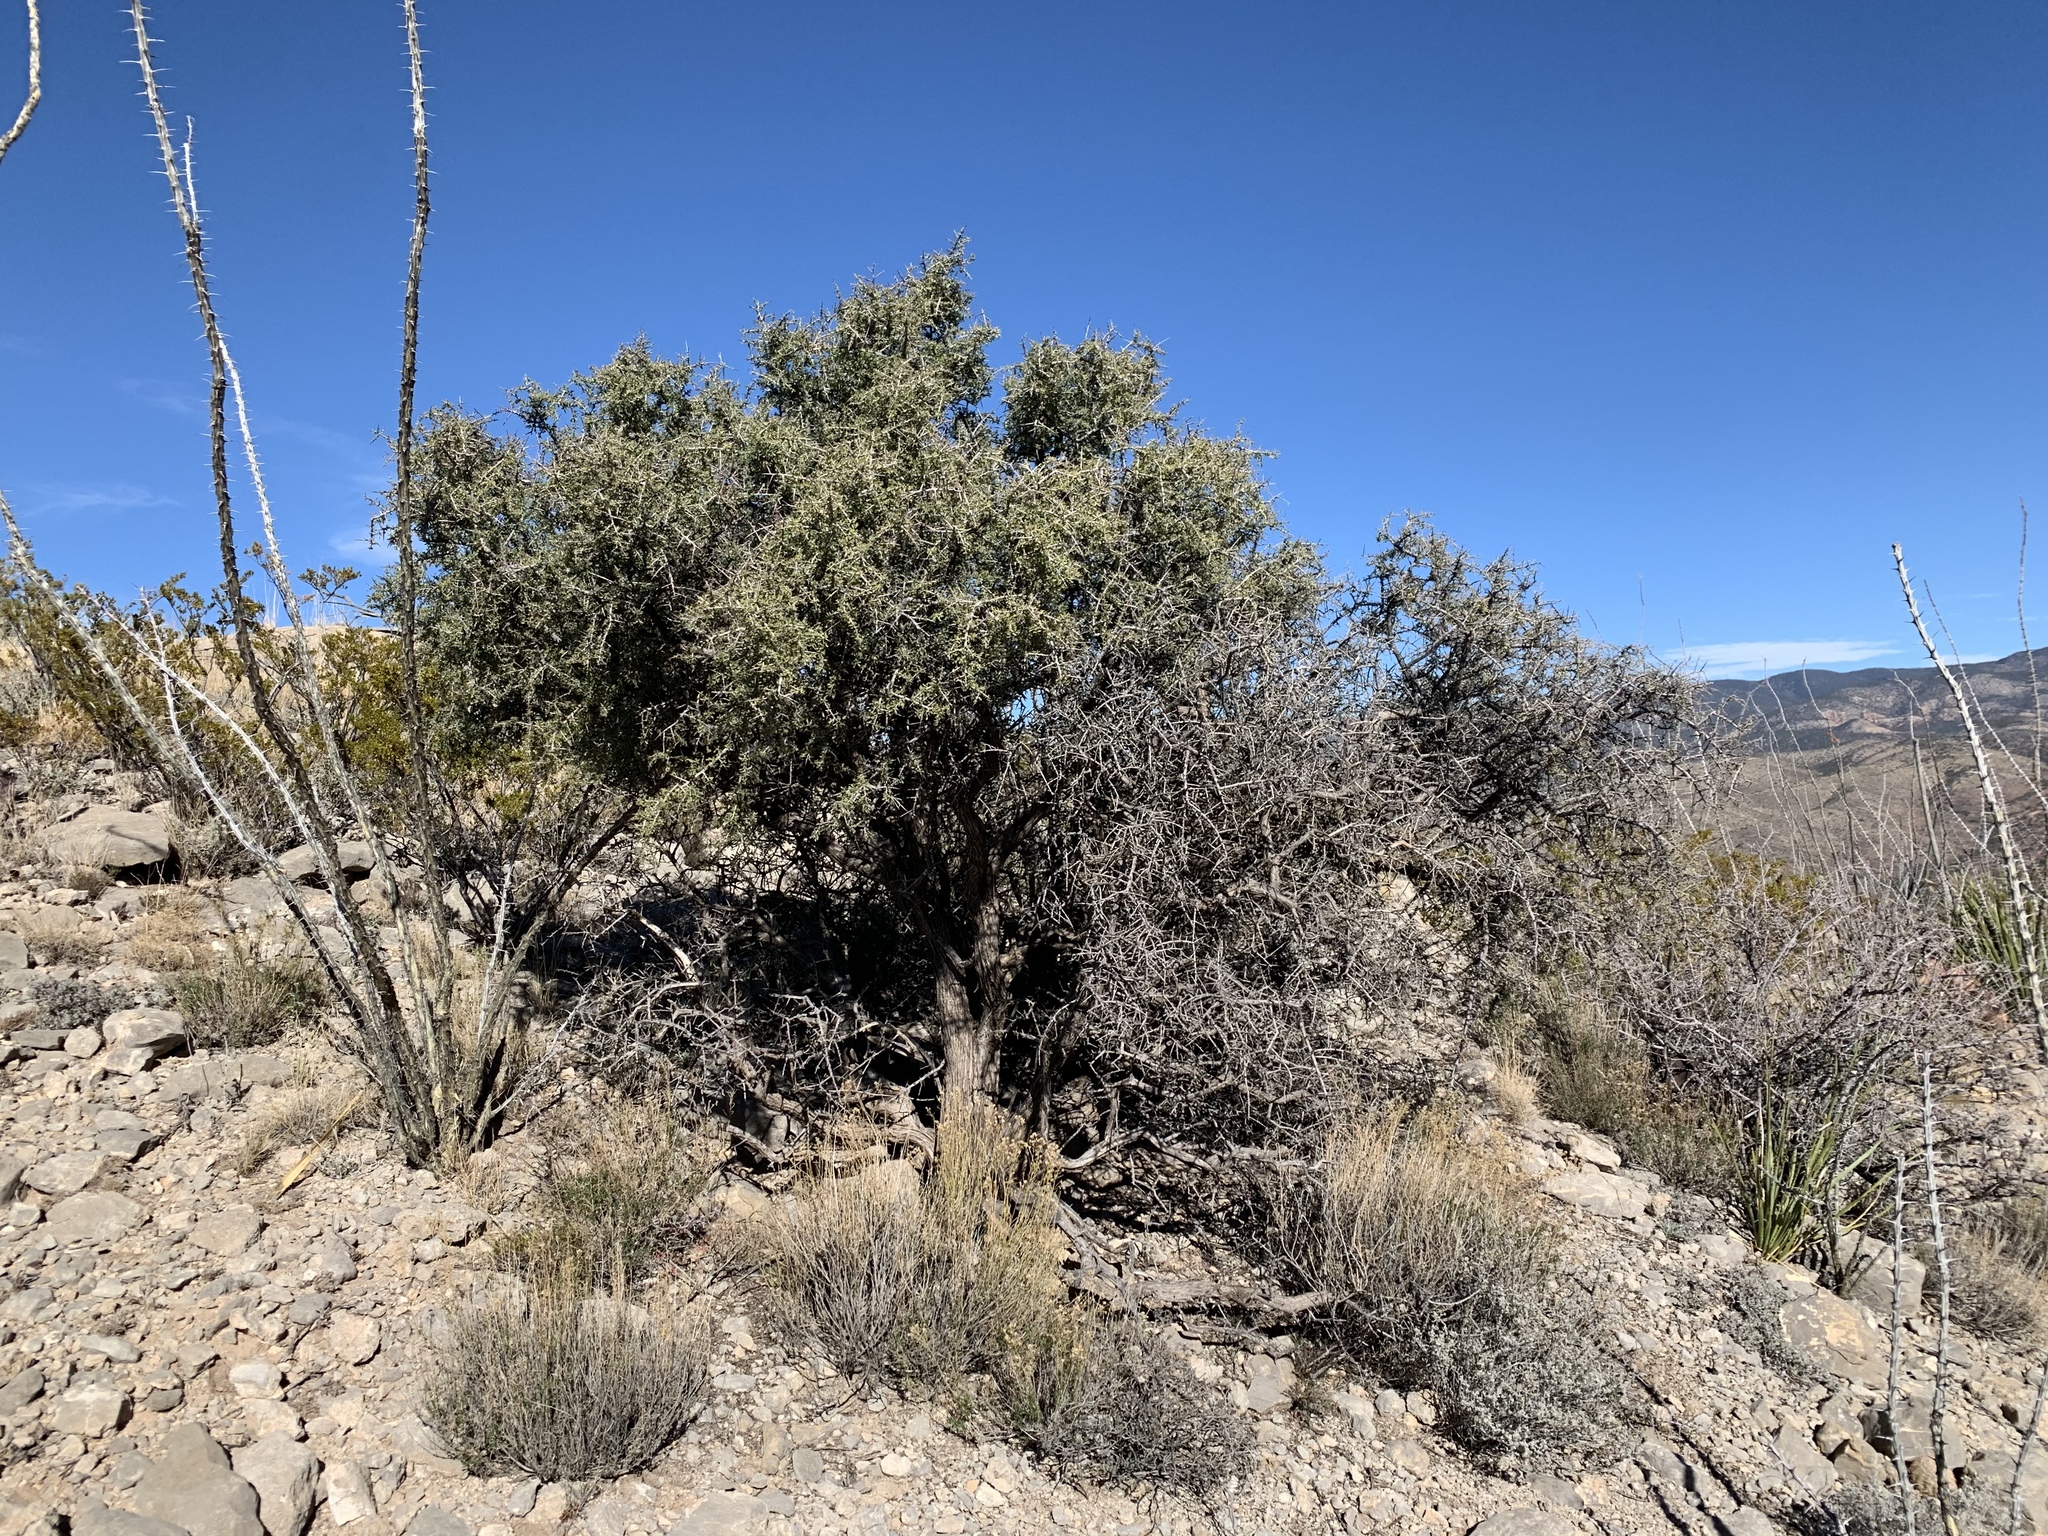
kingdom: Plantae
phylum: Tracheophyta
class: Magnoliopsida
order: Rosales
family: Rhamnaceae
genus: Condalia
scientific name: Condalia warnockii
